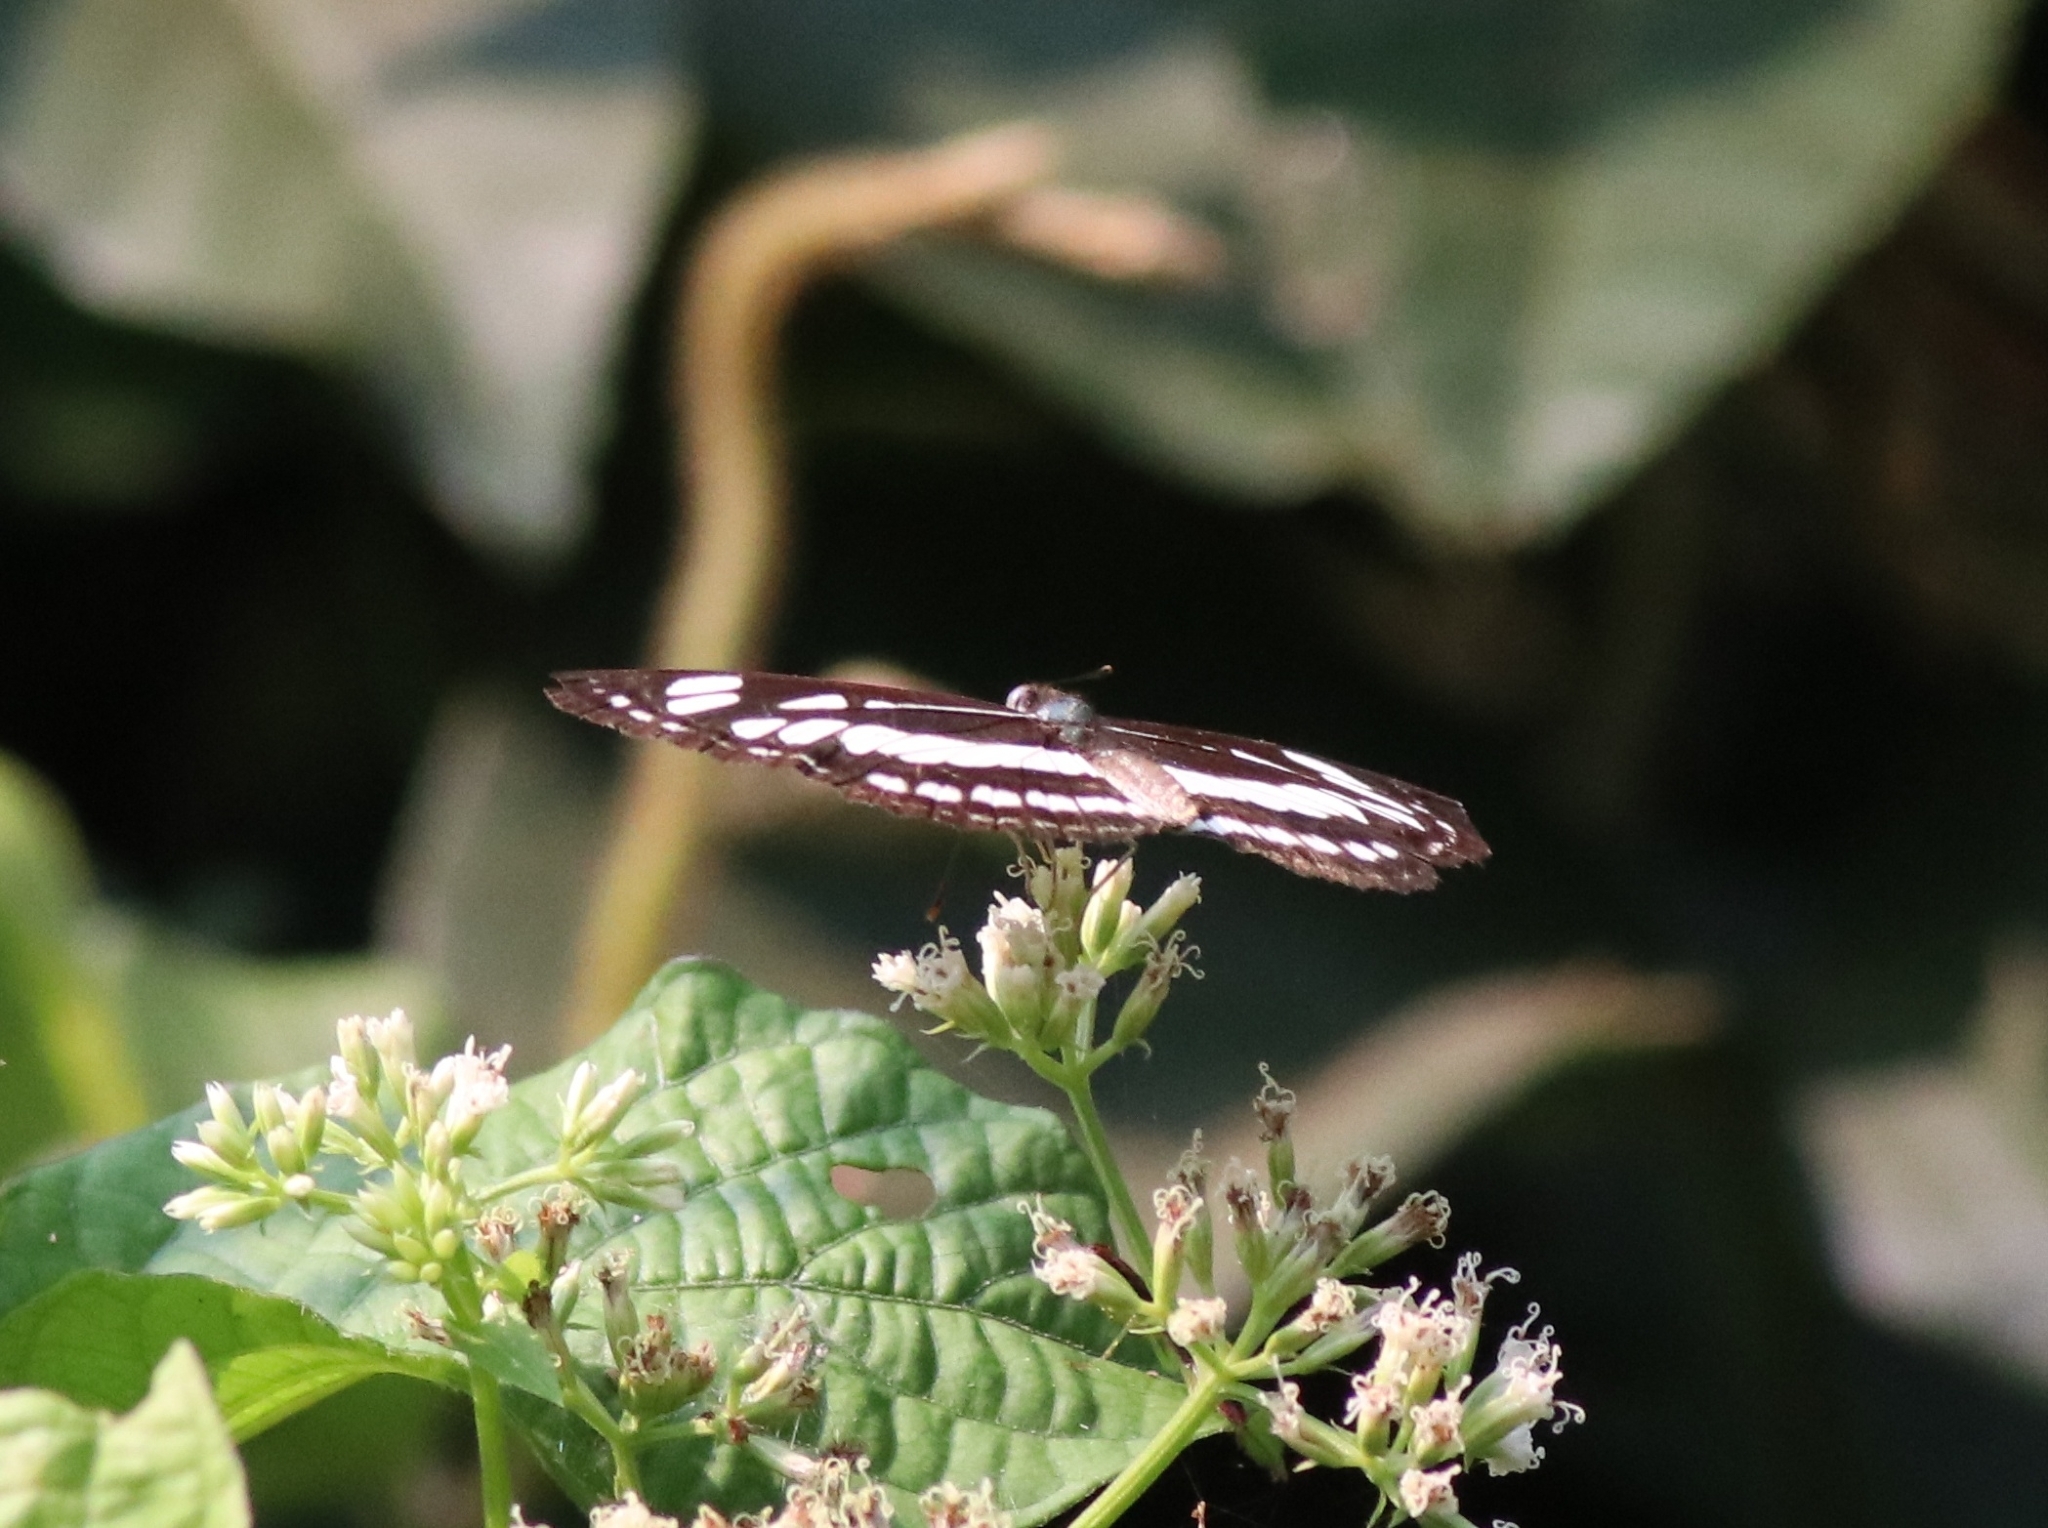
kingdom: Animalia
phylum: Arthropoda
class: Insecta
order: Lepidoptera
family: Nymphalidae
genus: Neptis
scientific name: Neptis hylas
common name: Common sailer
